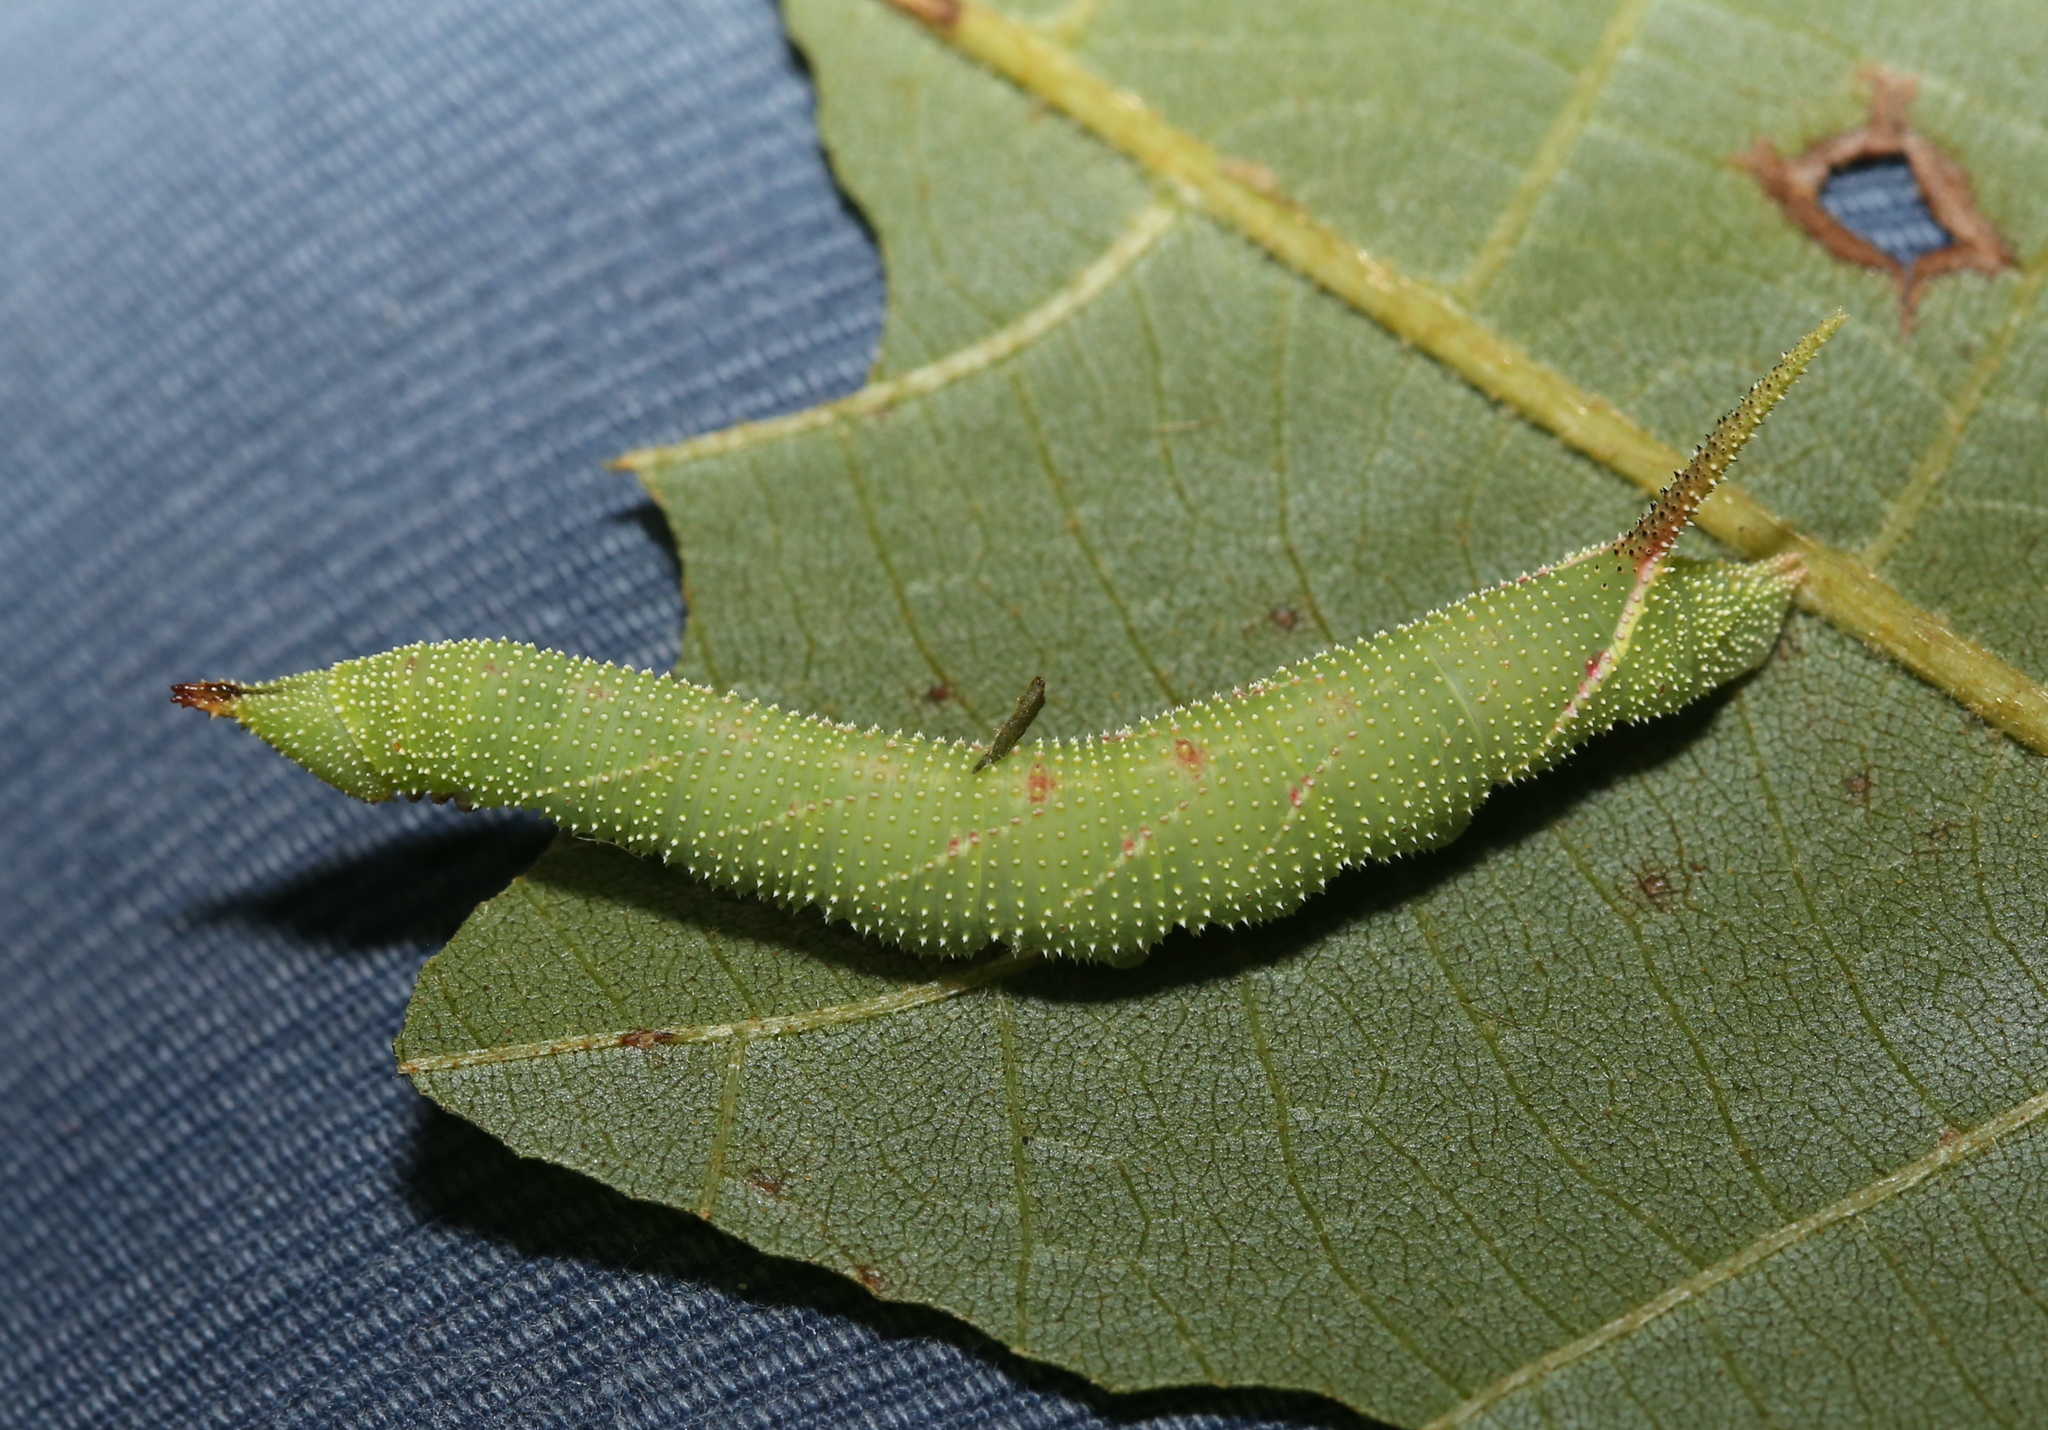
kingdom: Animalia
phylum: Arthropoda
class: Insecta
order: Lepidoptera
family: Sphingidae
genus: Amorpha
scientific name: Amorpha juglandis
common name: Walnut sphinx
